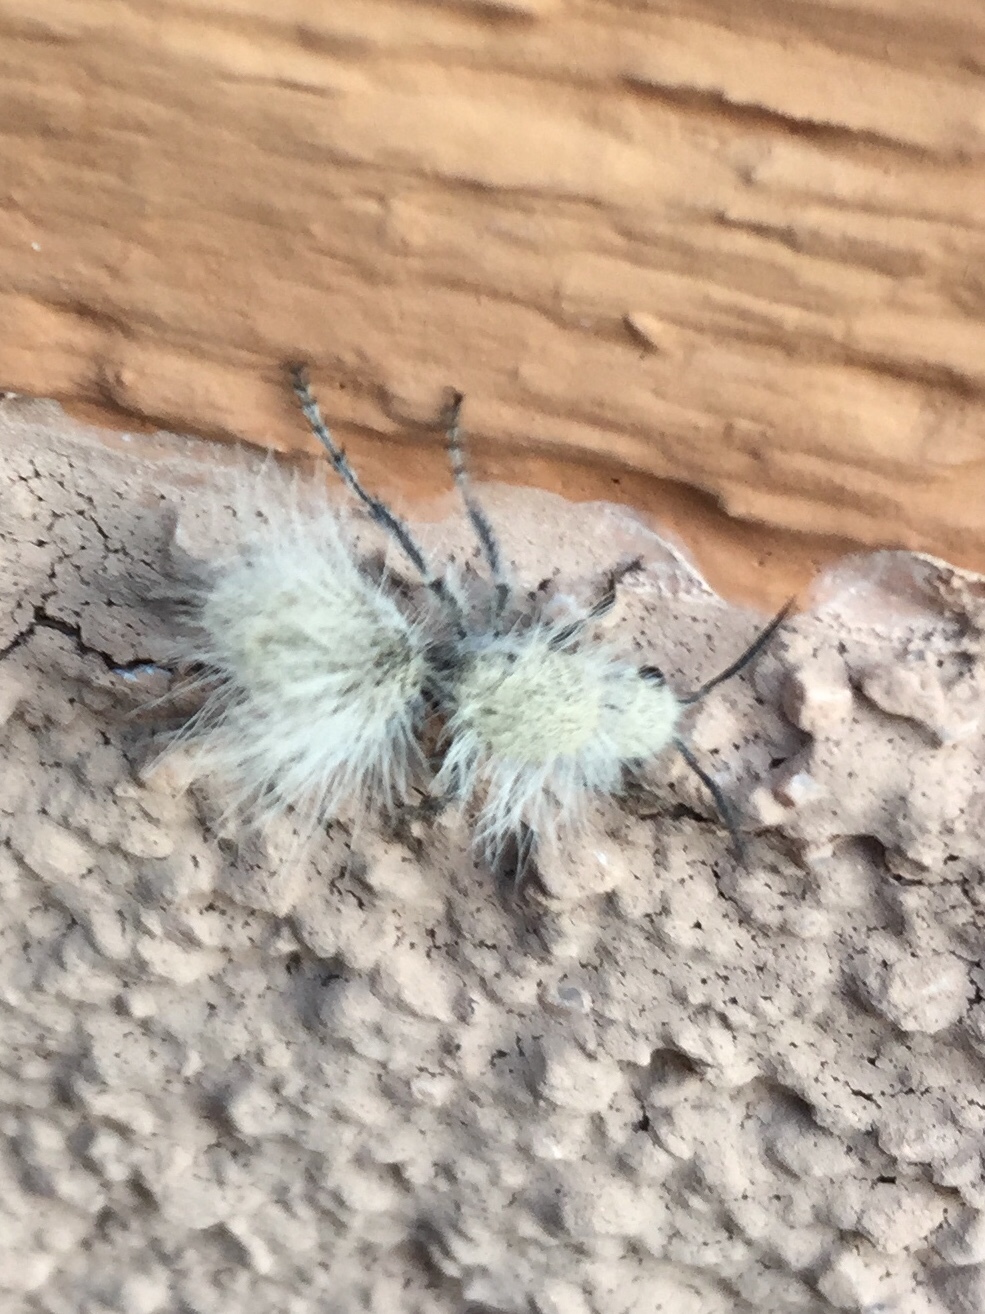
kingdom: Animalia
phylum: Arthropoda
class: Insecta
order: Hymenoptera
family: Mutillidae
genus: Dasymutilla
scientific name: Dasymutilla gloriosa
